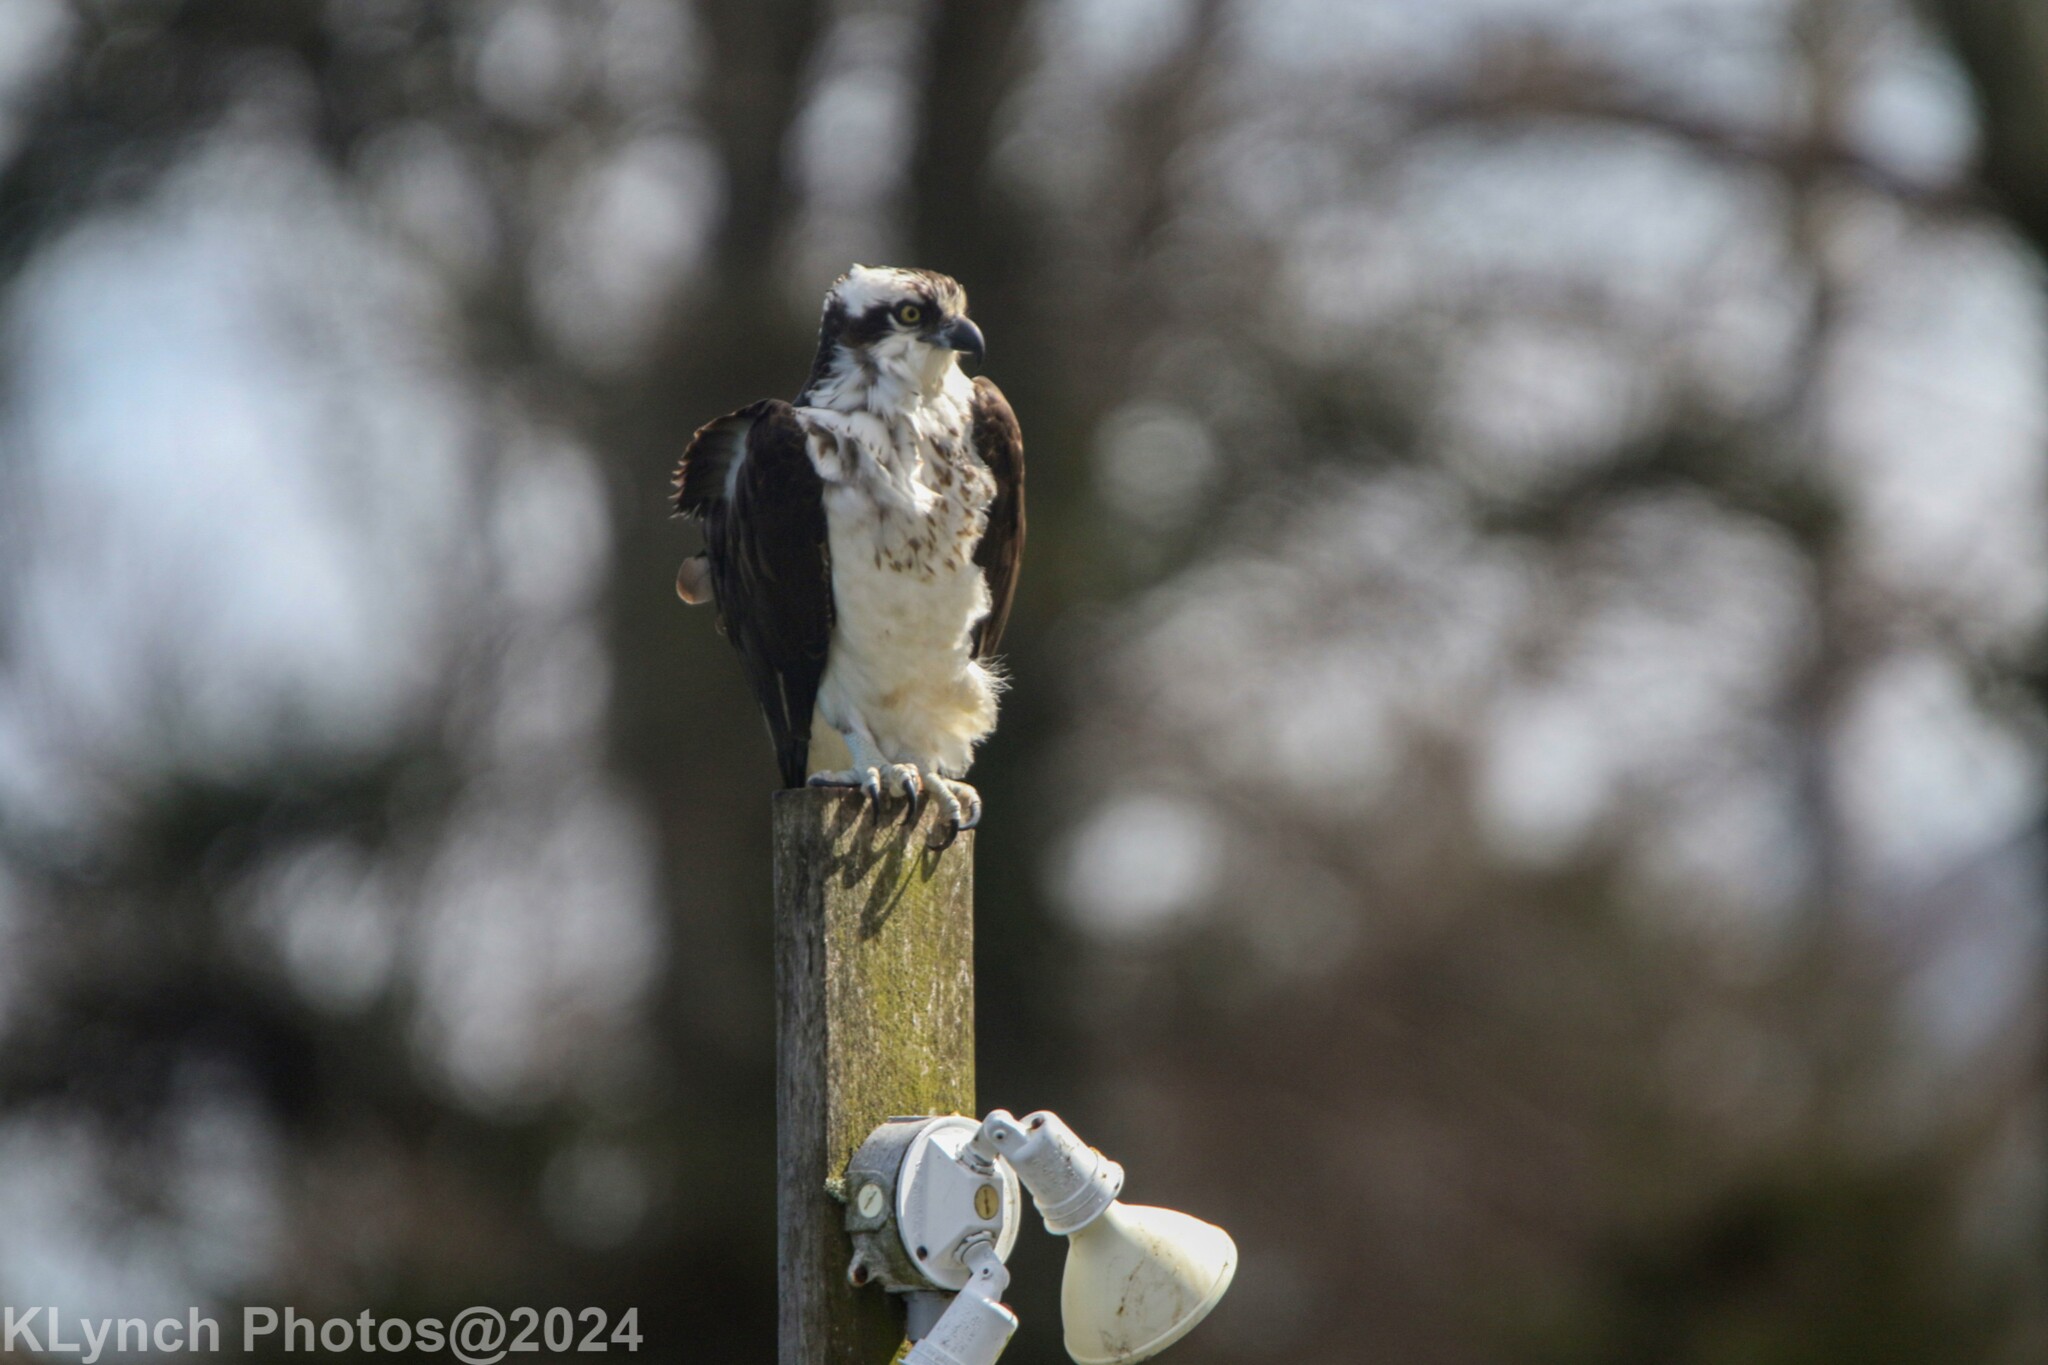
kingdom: Animalia
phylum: Chordata
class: Aves
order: Accipitriformes
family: Pandionidae
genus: Pandion
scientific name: Pandion haliaetus
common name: Osprey
